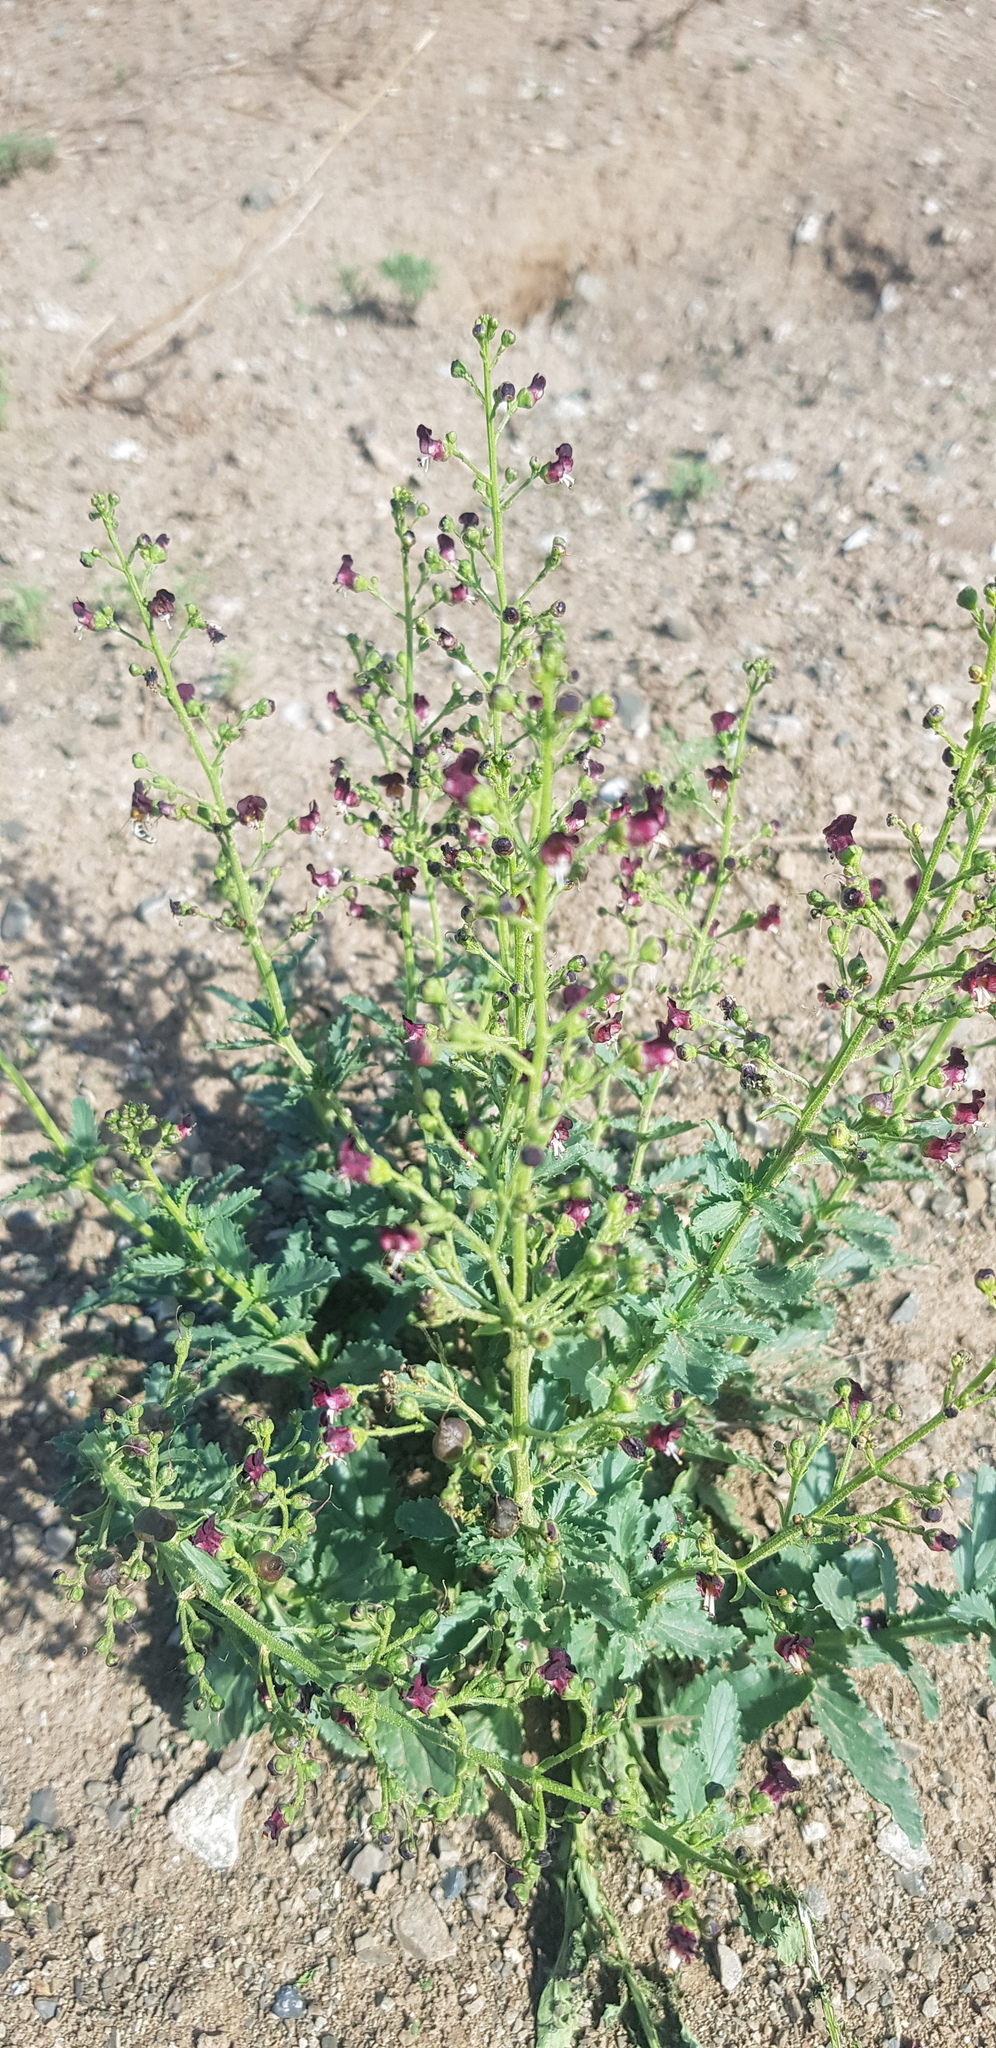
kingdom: Plantae
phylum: Tracheophyta
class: Magnoliopsida
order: Lamiales
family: Scrophulariaceae
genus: Scrophularia
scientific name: Scrophularia incisa
